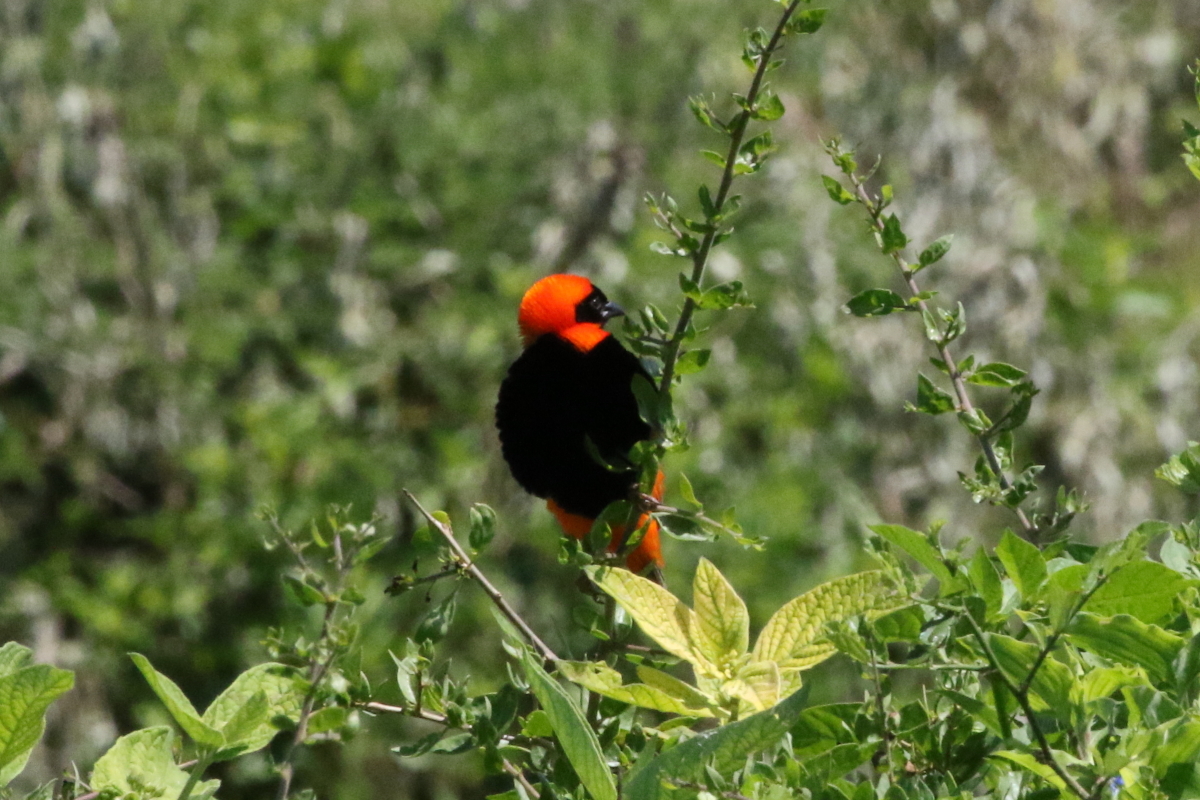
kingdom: Animalia
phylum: Chordata
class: Aves
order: Passeriformes
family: Ploceidae
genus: Euplectes
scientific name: Euplectes orix
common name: Southern red bishop
